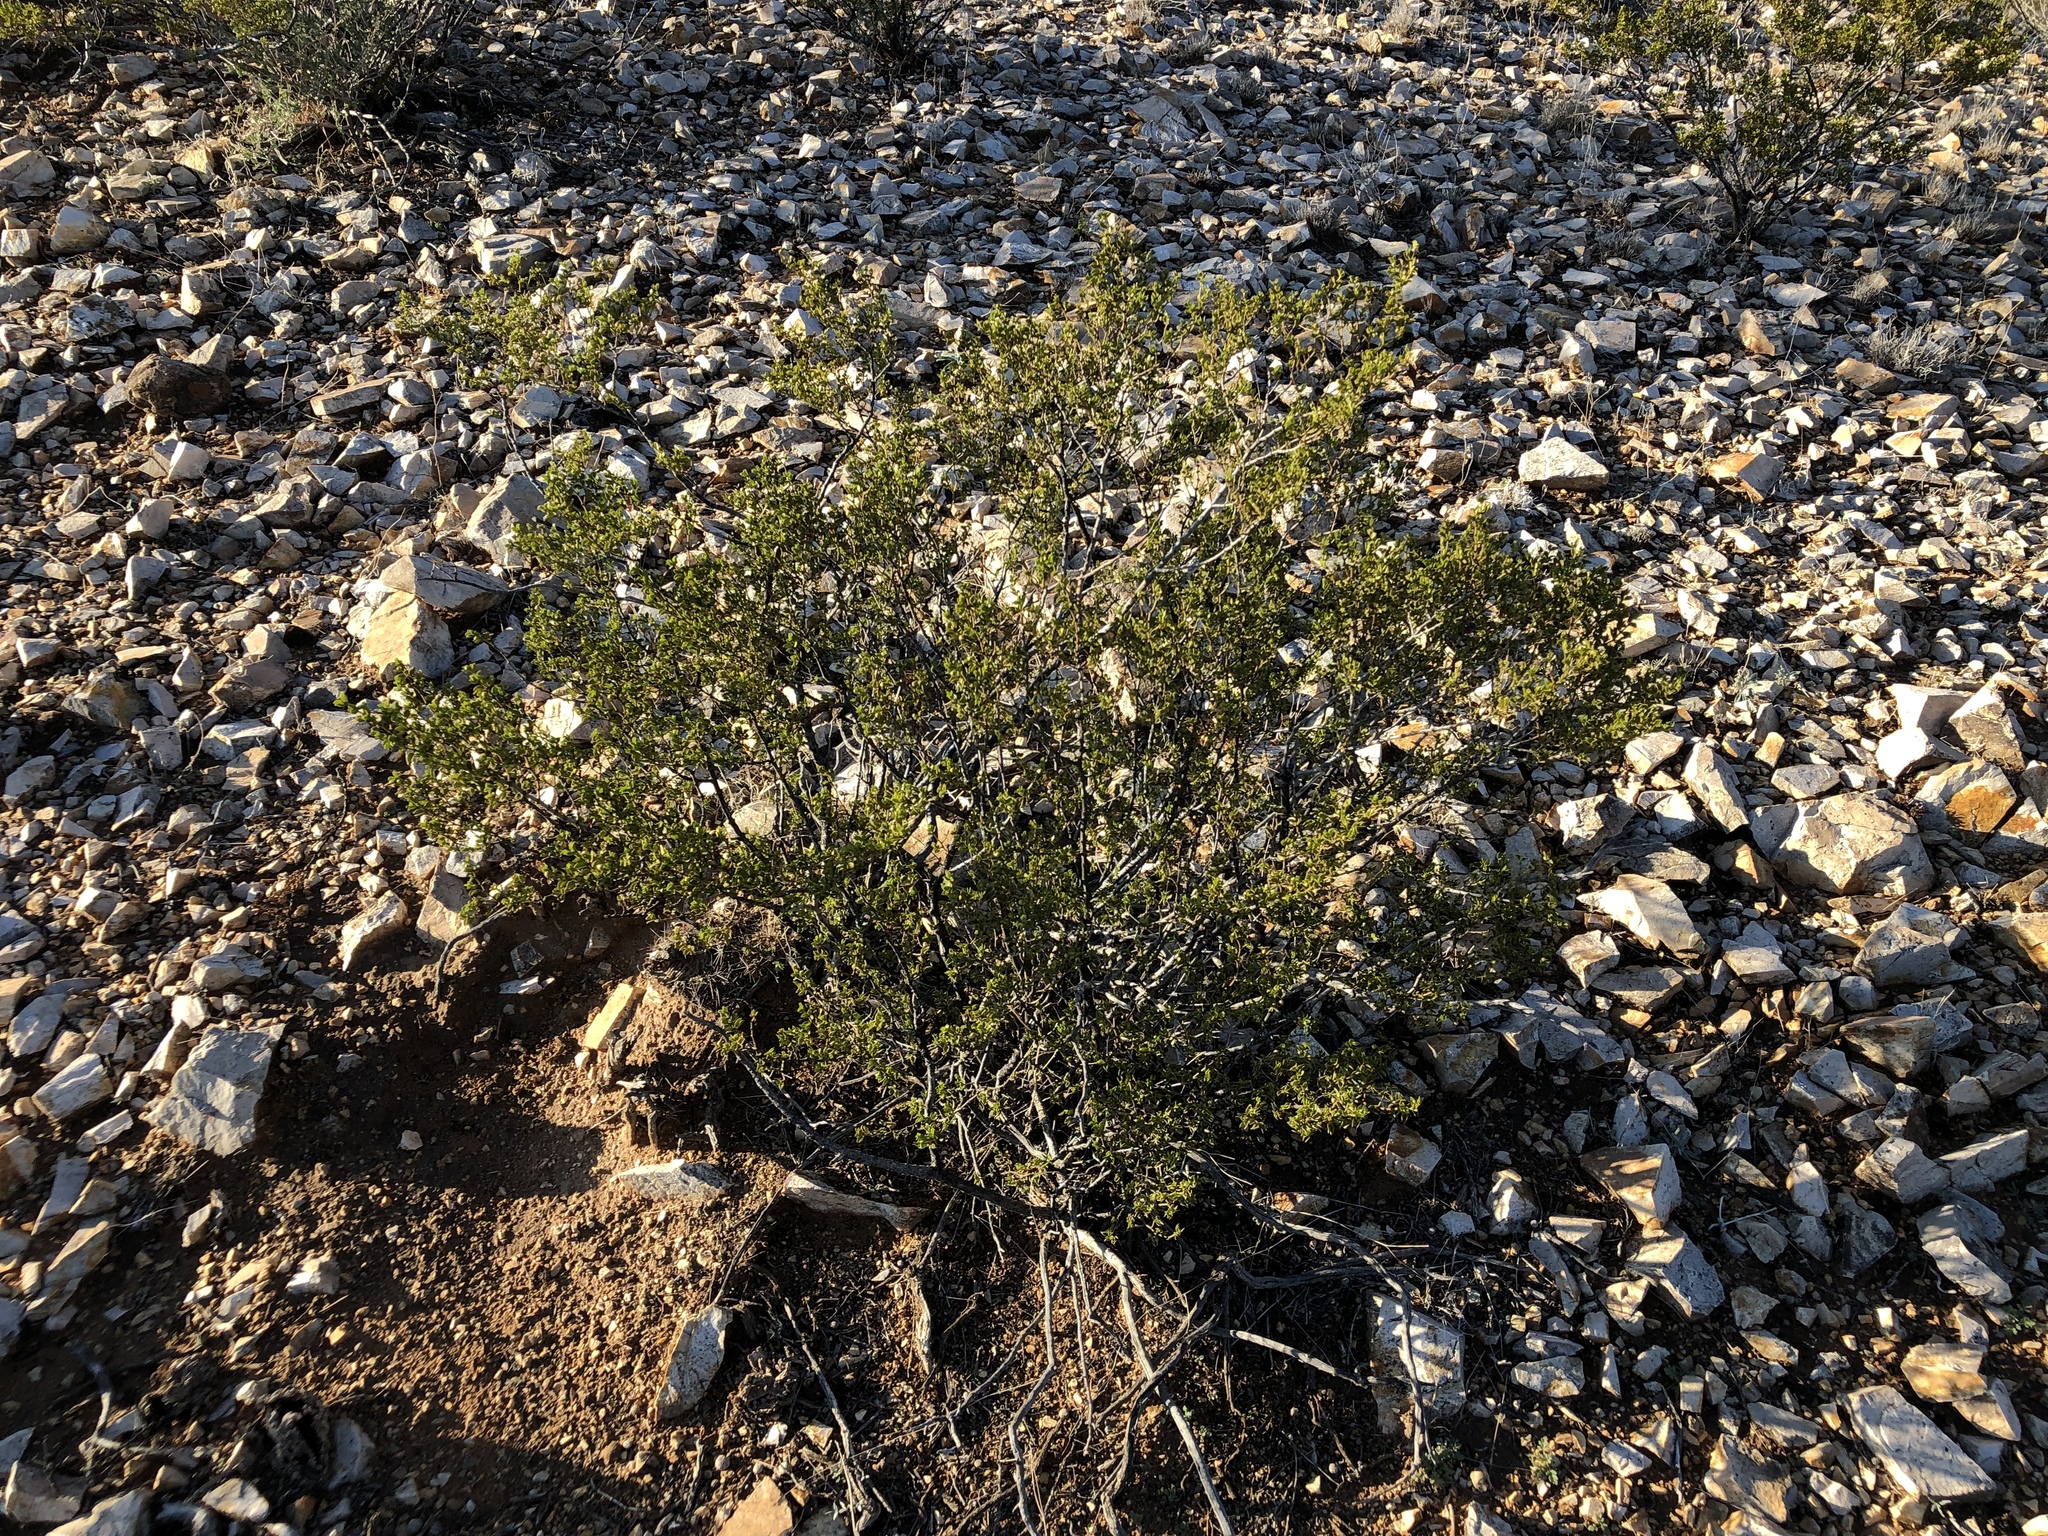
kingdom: Plantae
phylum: Tracheophyta
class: Magnoliopsida
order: Zygophyllales
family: Zygophyllaceae
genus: Larrea
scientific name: Larrea tridentata
